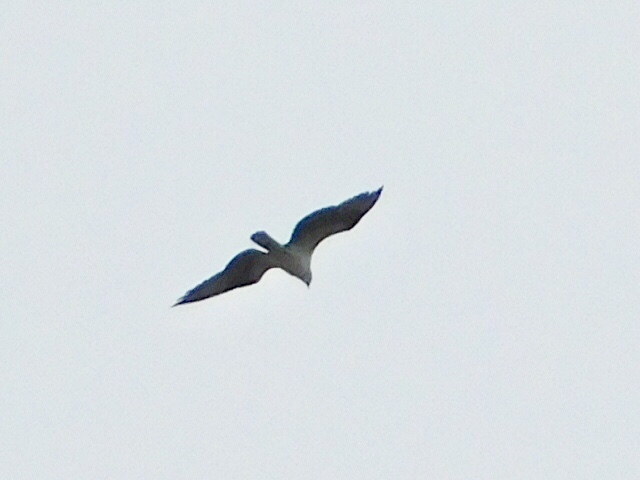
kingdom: Animalia
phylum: Chordata
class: Aves
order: Accipitriformes
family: Pandionidae
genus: Pandion
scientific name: Pandion haliaetus
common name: Osprey
